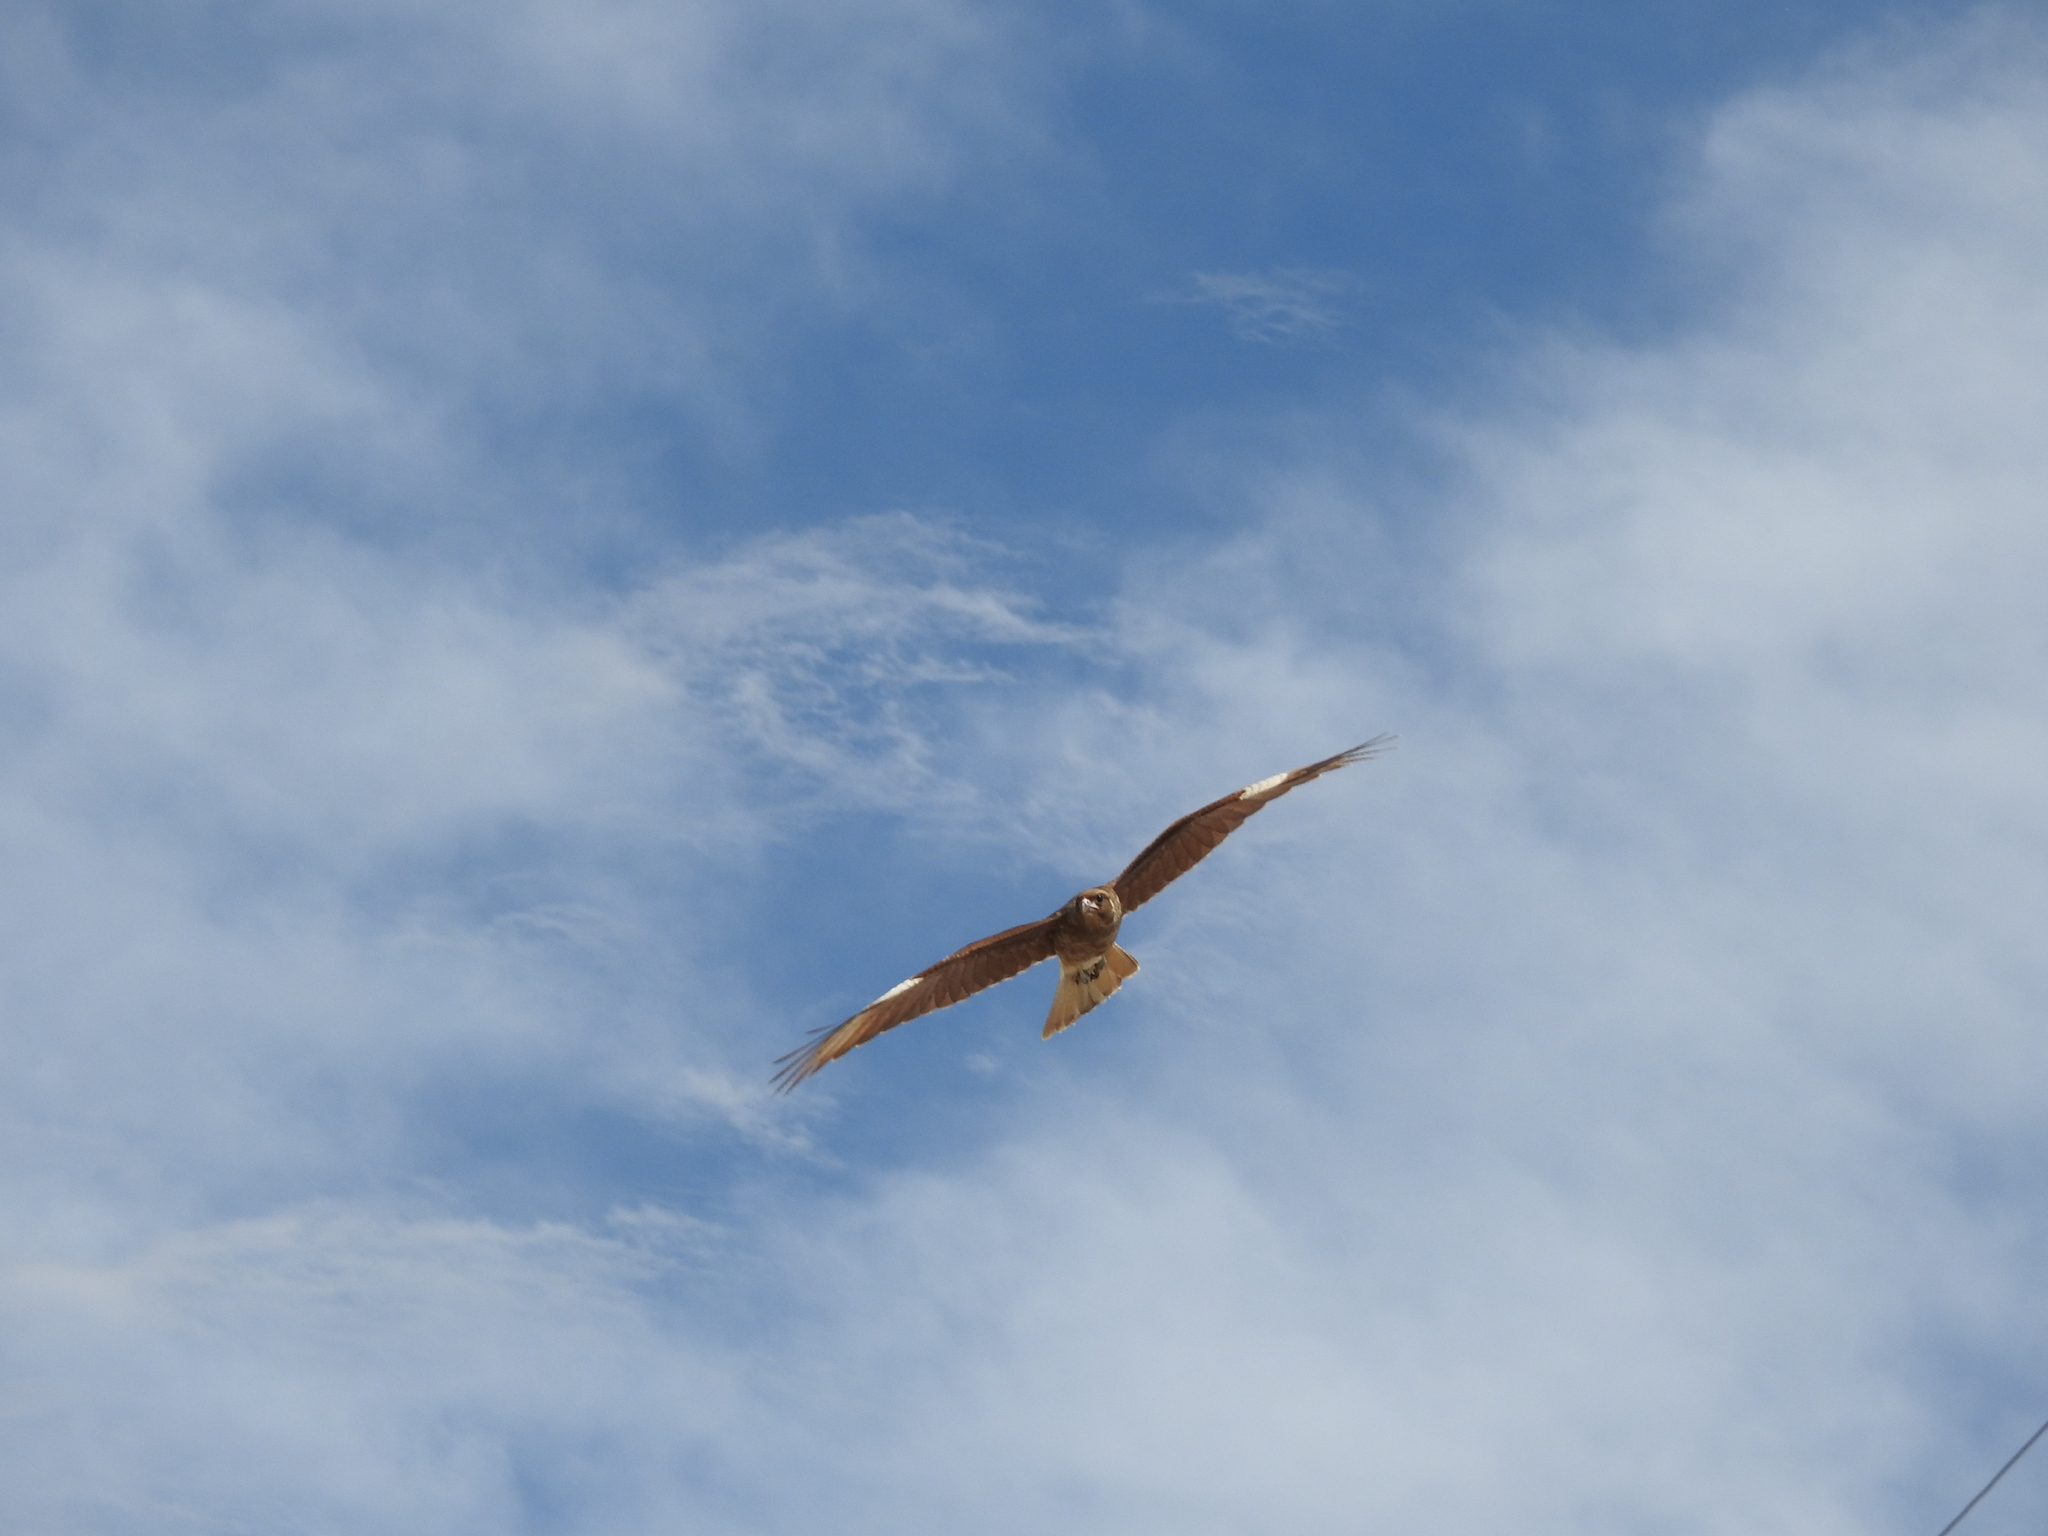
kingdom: Animalia
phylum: Chordata
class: Aves
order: Falconiformes
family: Falconidae
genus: Daptrius
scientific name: Daptrius
